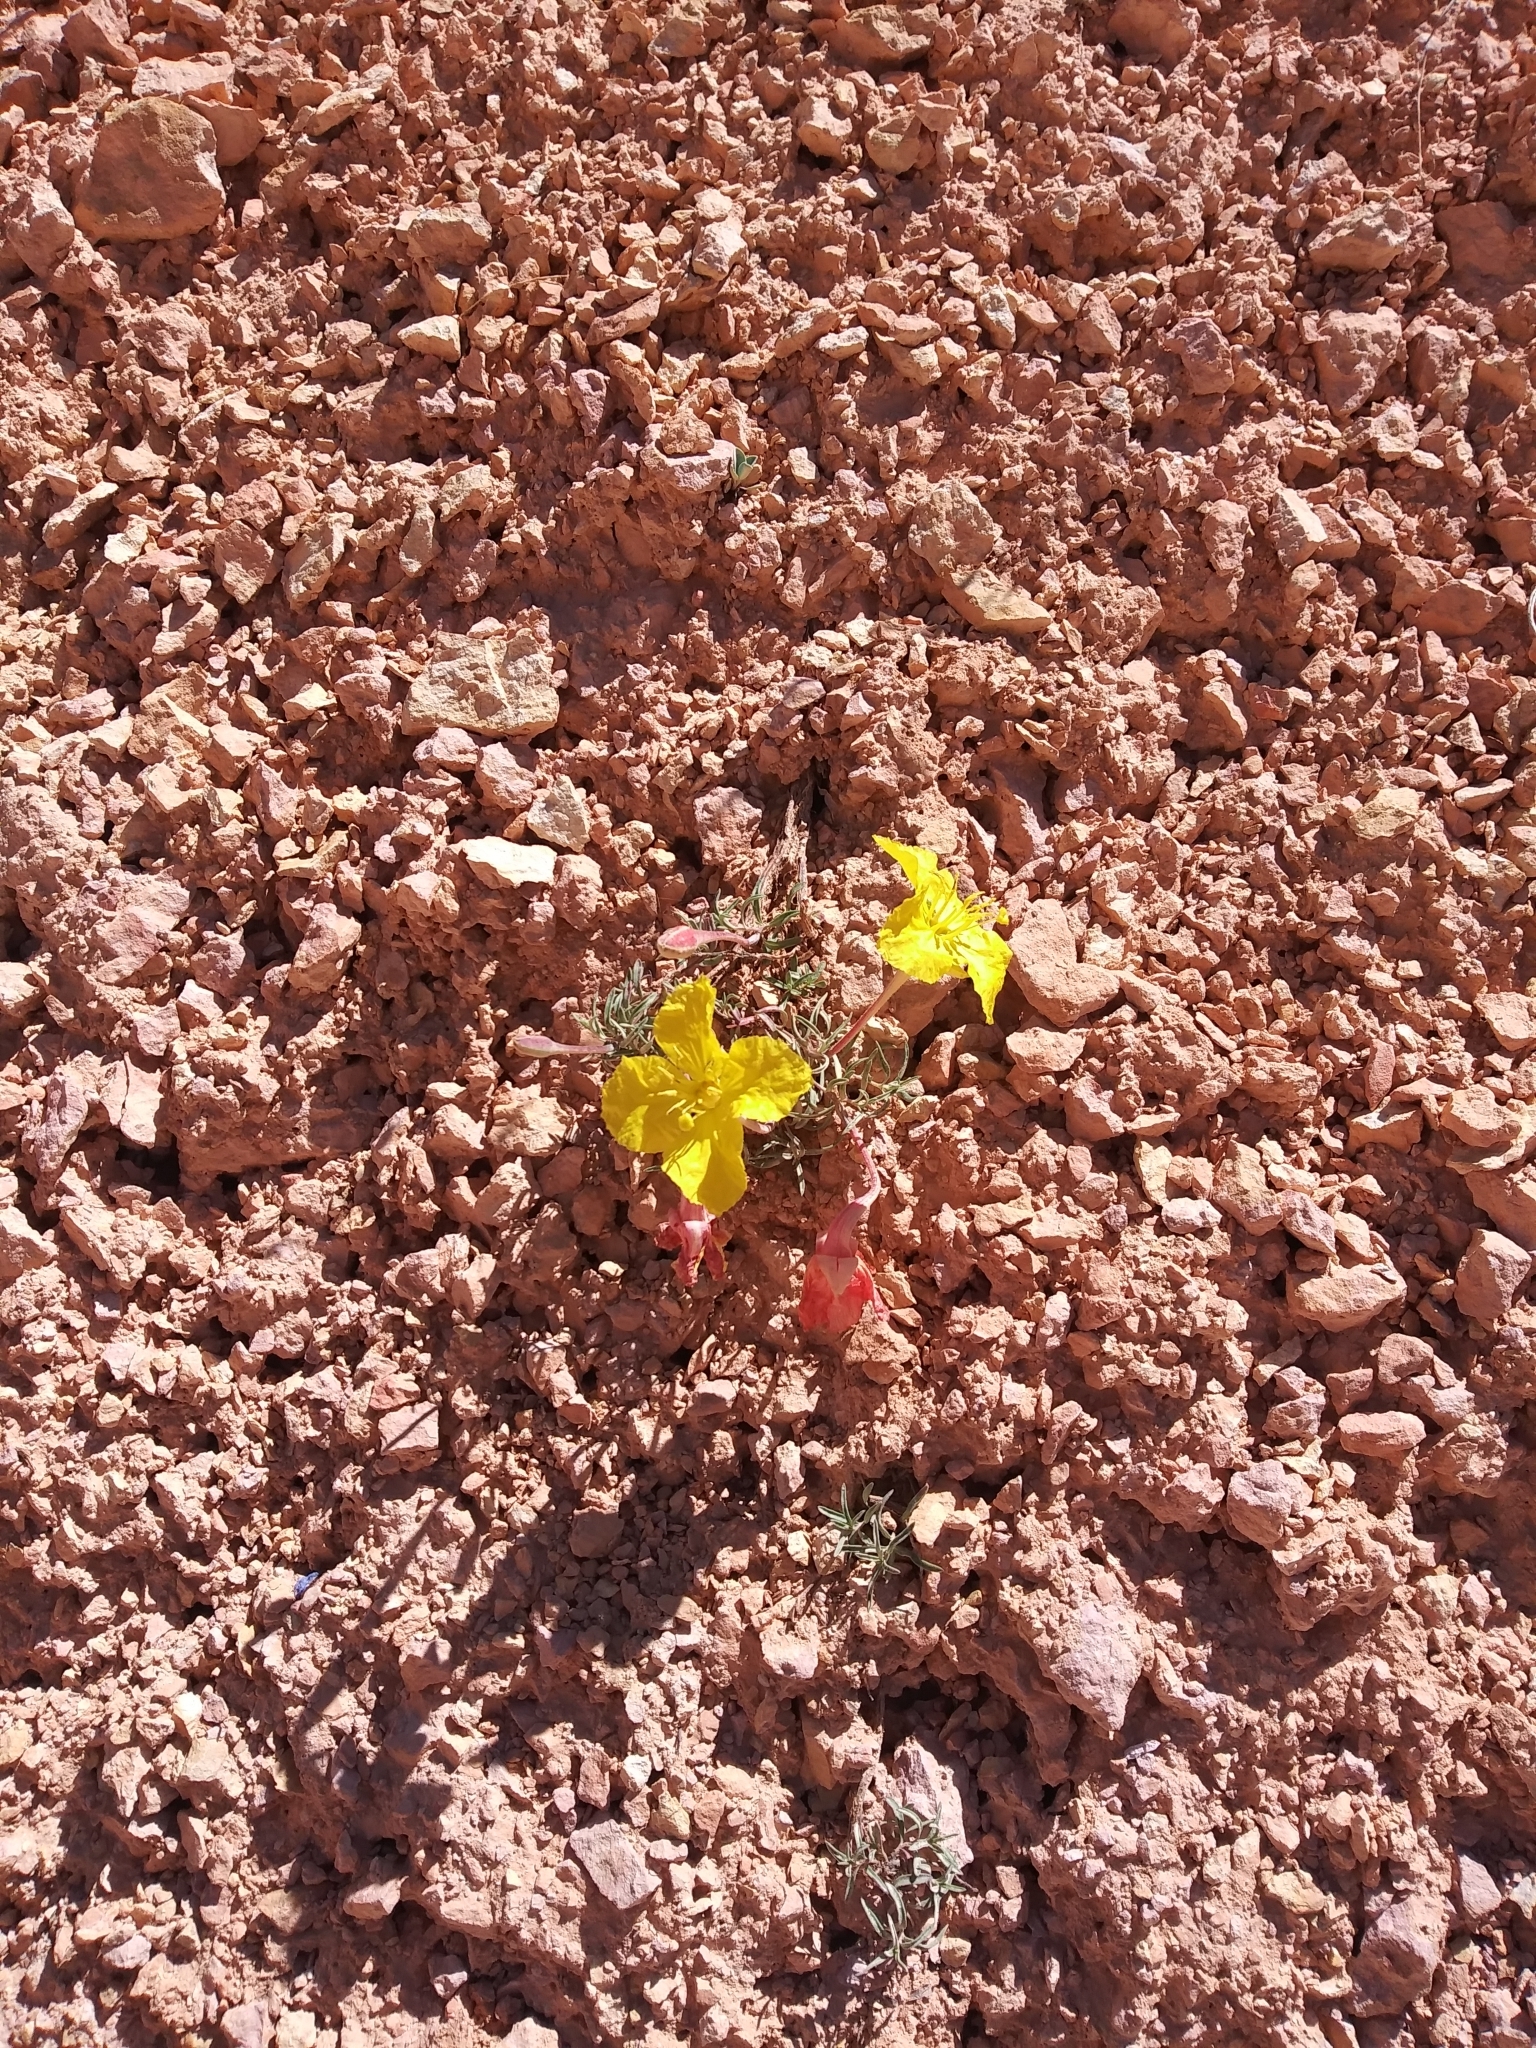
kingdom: Plantae
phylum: Tracheophyta
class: Magnoliopsida
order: Myrtales
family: Onagraceae
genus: Oenothera
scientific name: Oenothera lavandulifolia
